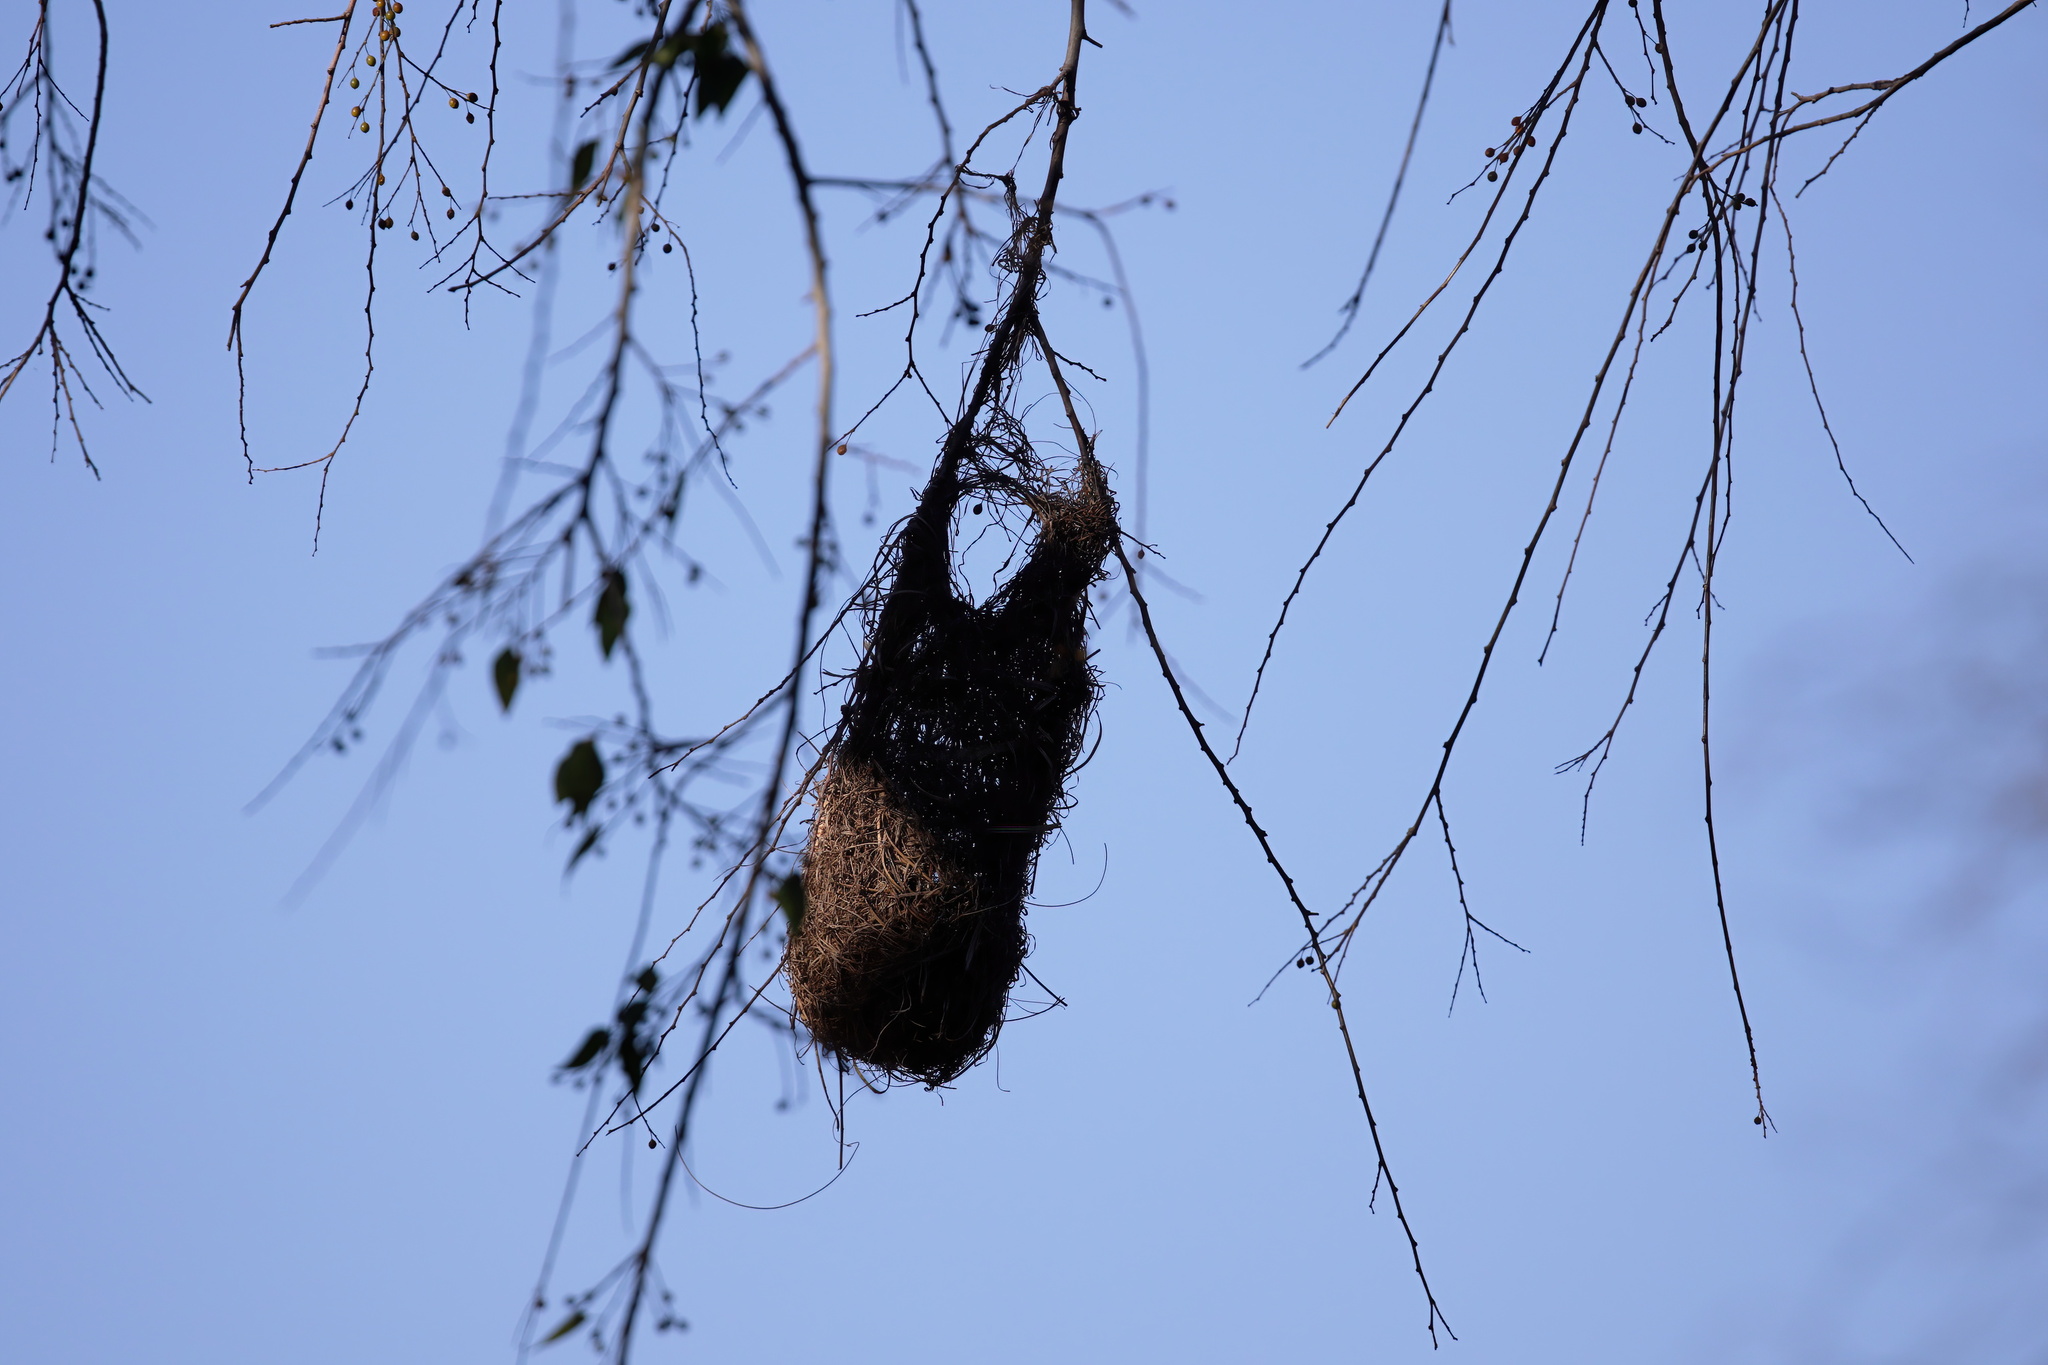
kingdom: Animalia
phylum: Chordata
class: Aves
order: Passeriformes
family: Icteridae
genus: Icterus
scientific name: Icterus gularis
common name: Altamira oriole
